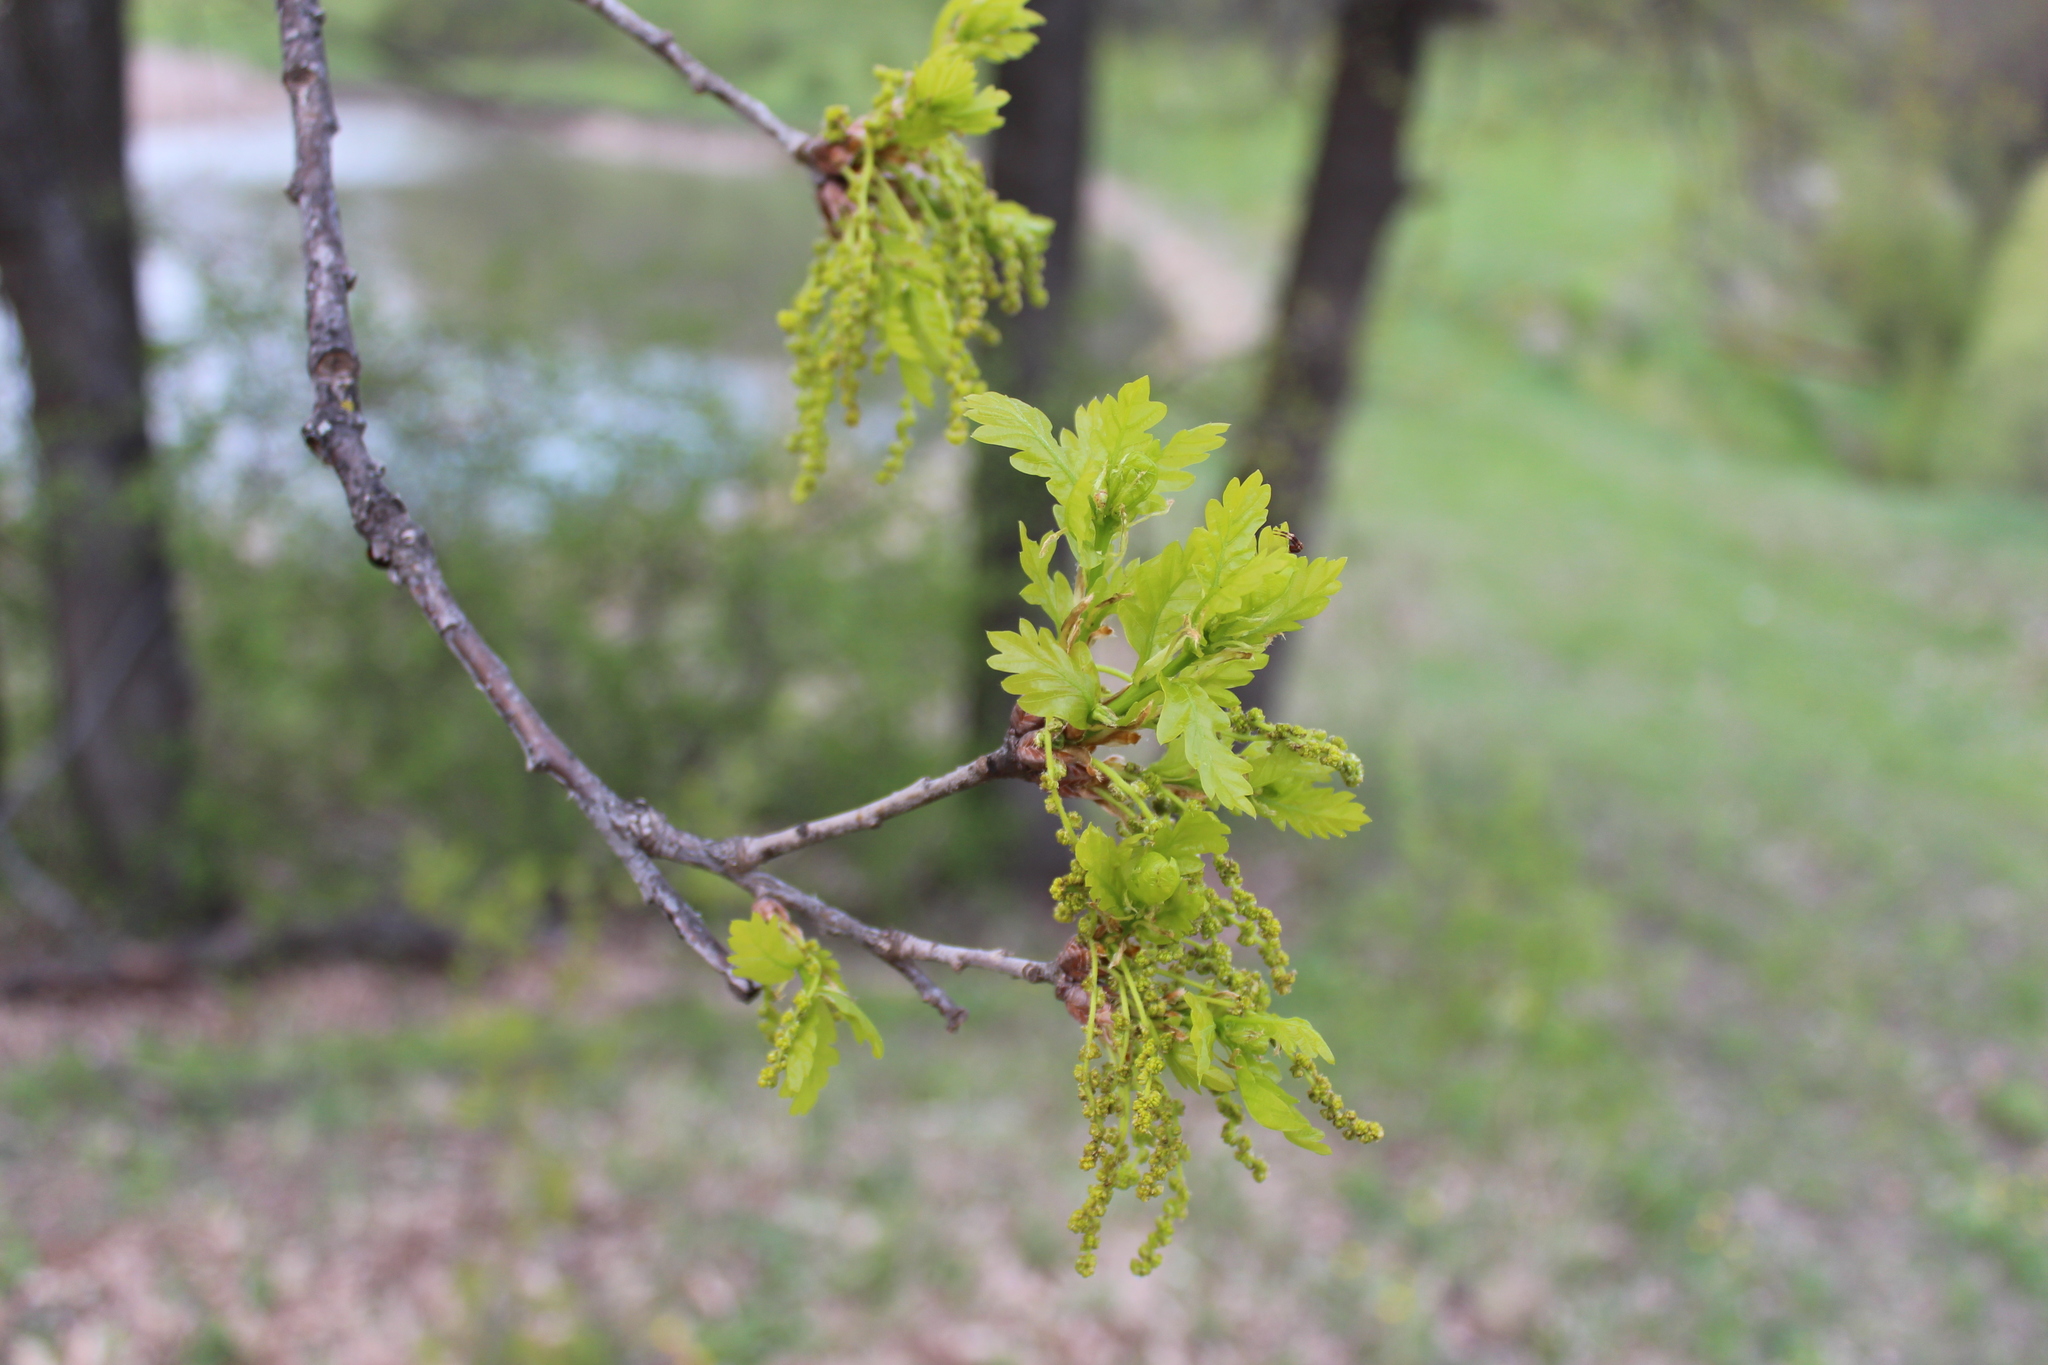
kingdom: Plantae
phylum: Tracheophyta
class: Magnoliopsida
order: Fagales
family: Fagaceae
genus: Quercus
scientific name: Quercus robur
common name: Pedunculate oak
